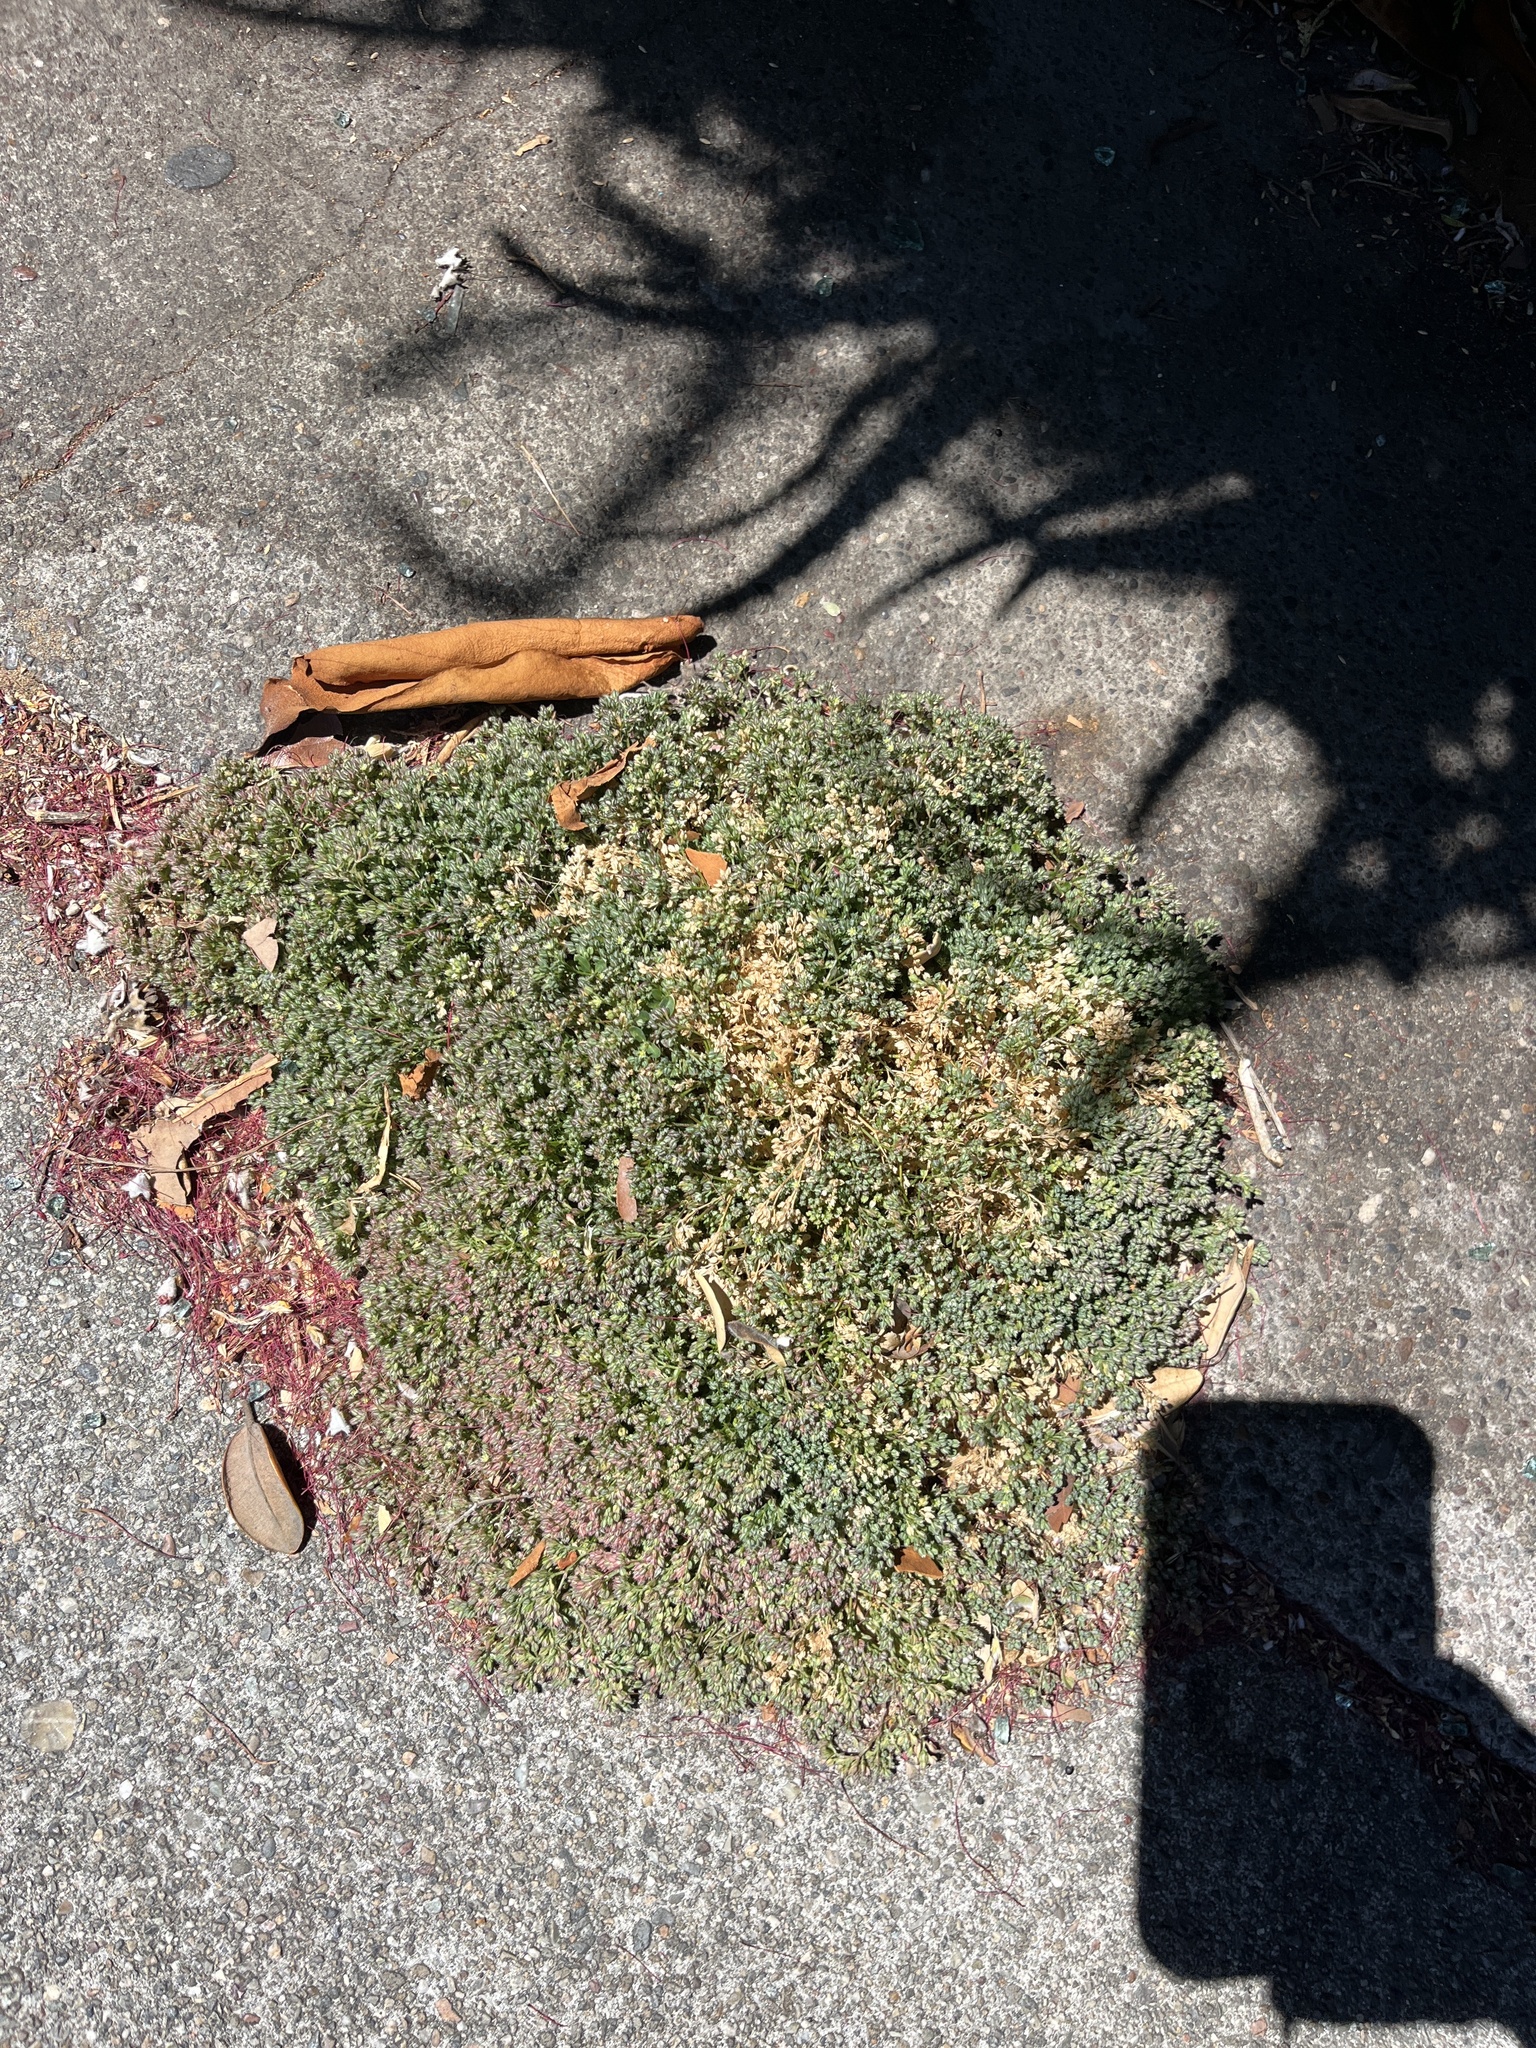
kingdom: Plantae
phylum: Tracheophyta
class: Magnoliopsida
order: Caryophyllales
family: Caryophyllaceae
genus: Polycarpon
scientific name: Polycarpon tetraphyllum
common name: Four-leaved all-seed
